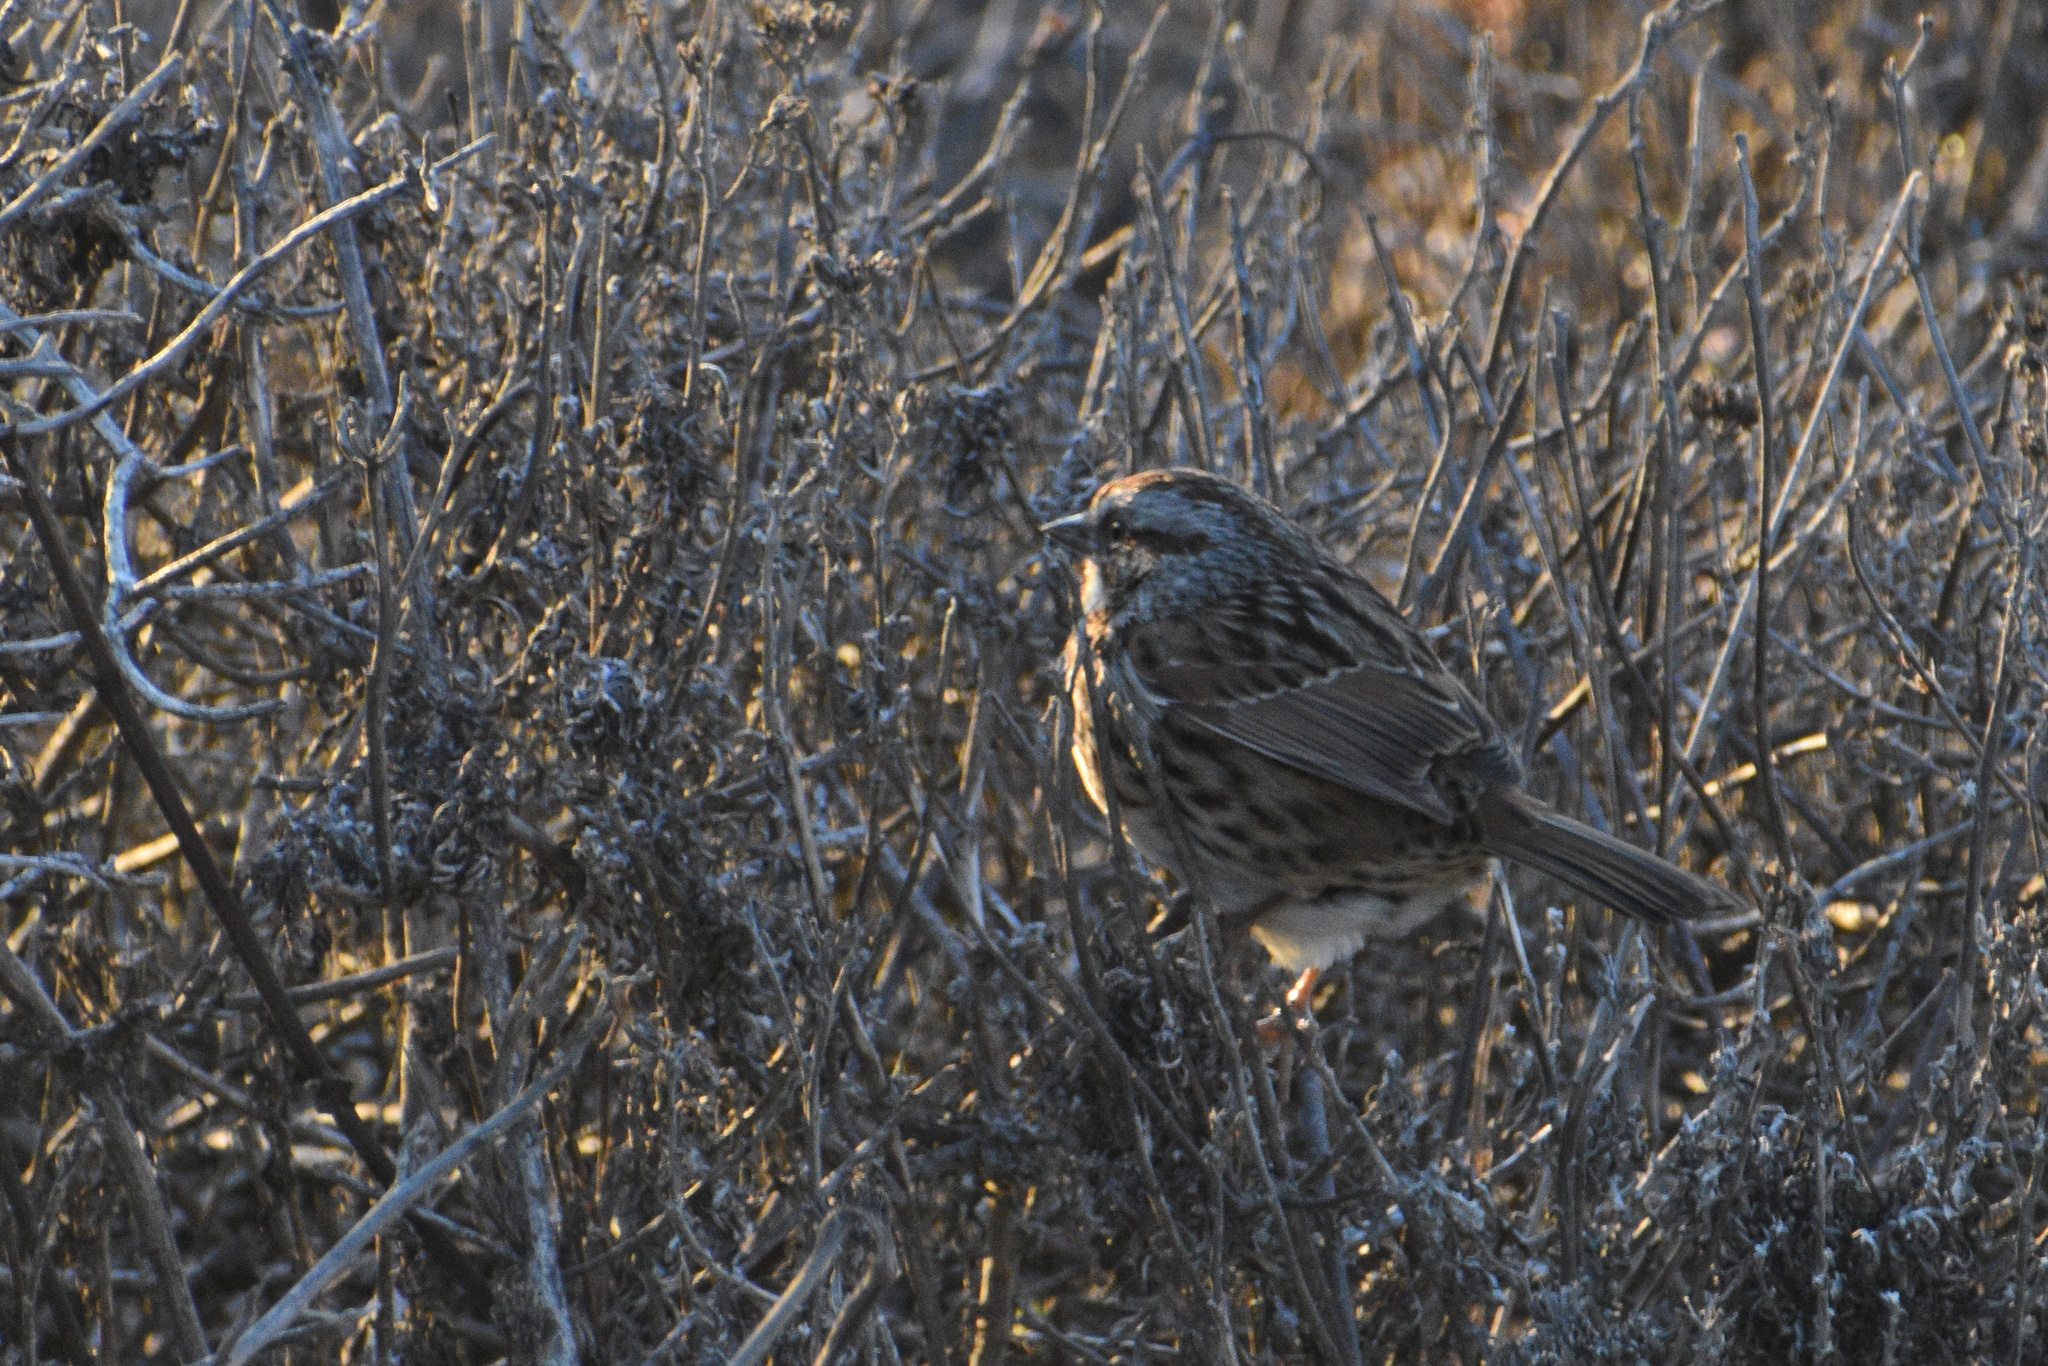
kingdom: Animalia
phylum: Chordata
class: Aves
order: Passeriformes
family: Passerellidae
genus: Melospiza
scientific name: Melospiza melodia
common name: Song sparrow
